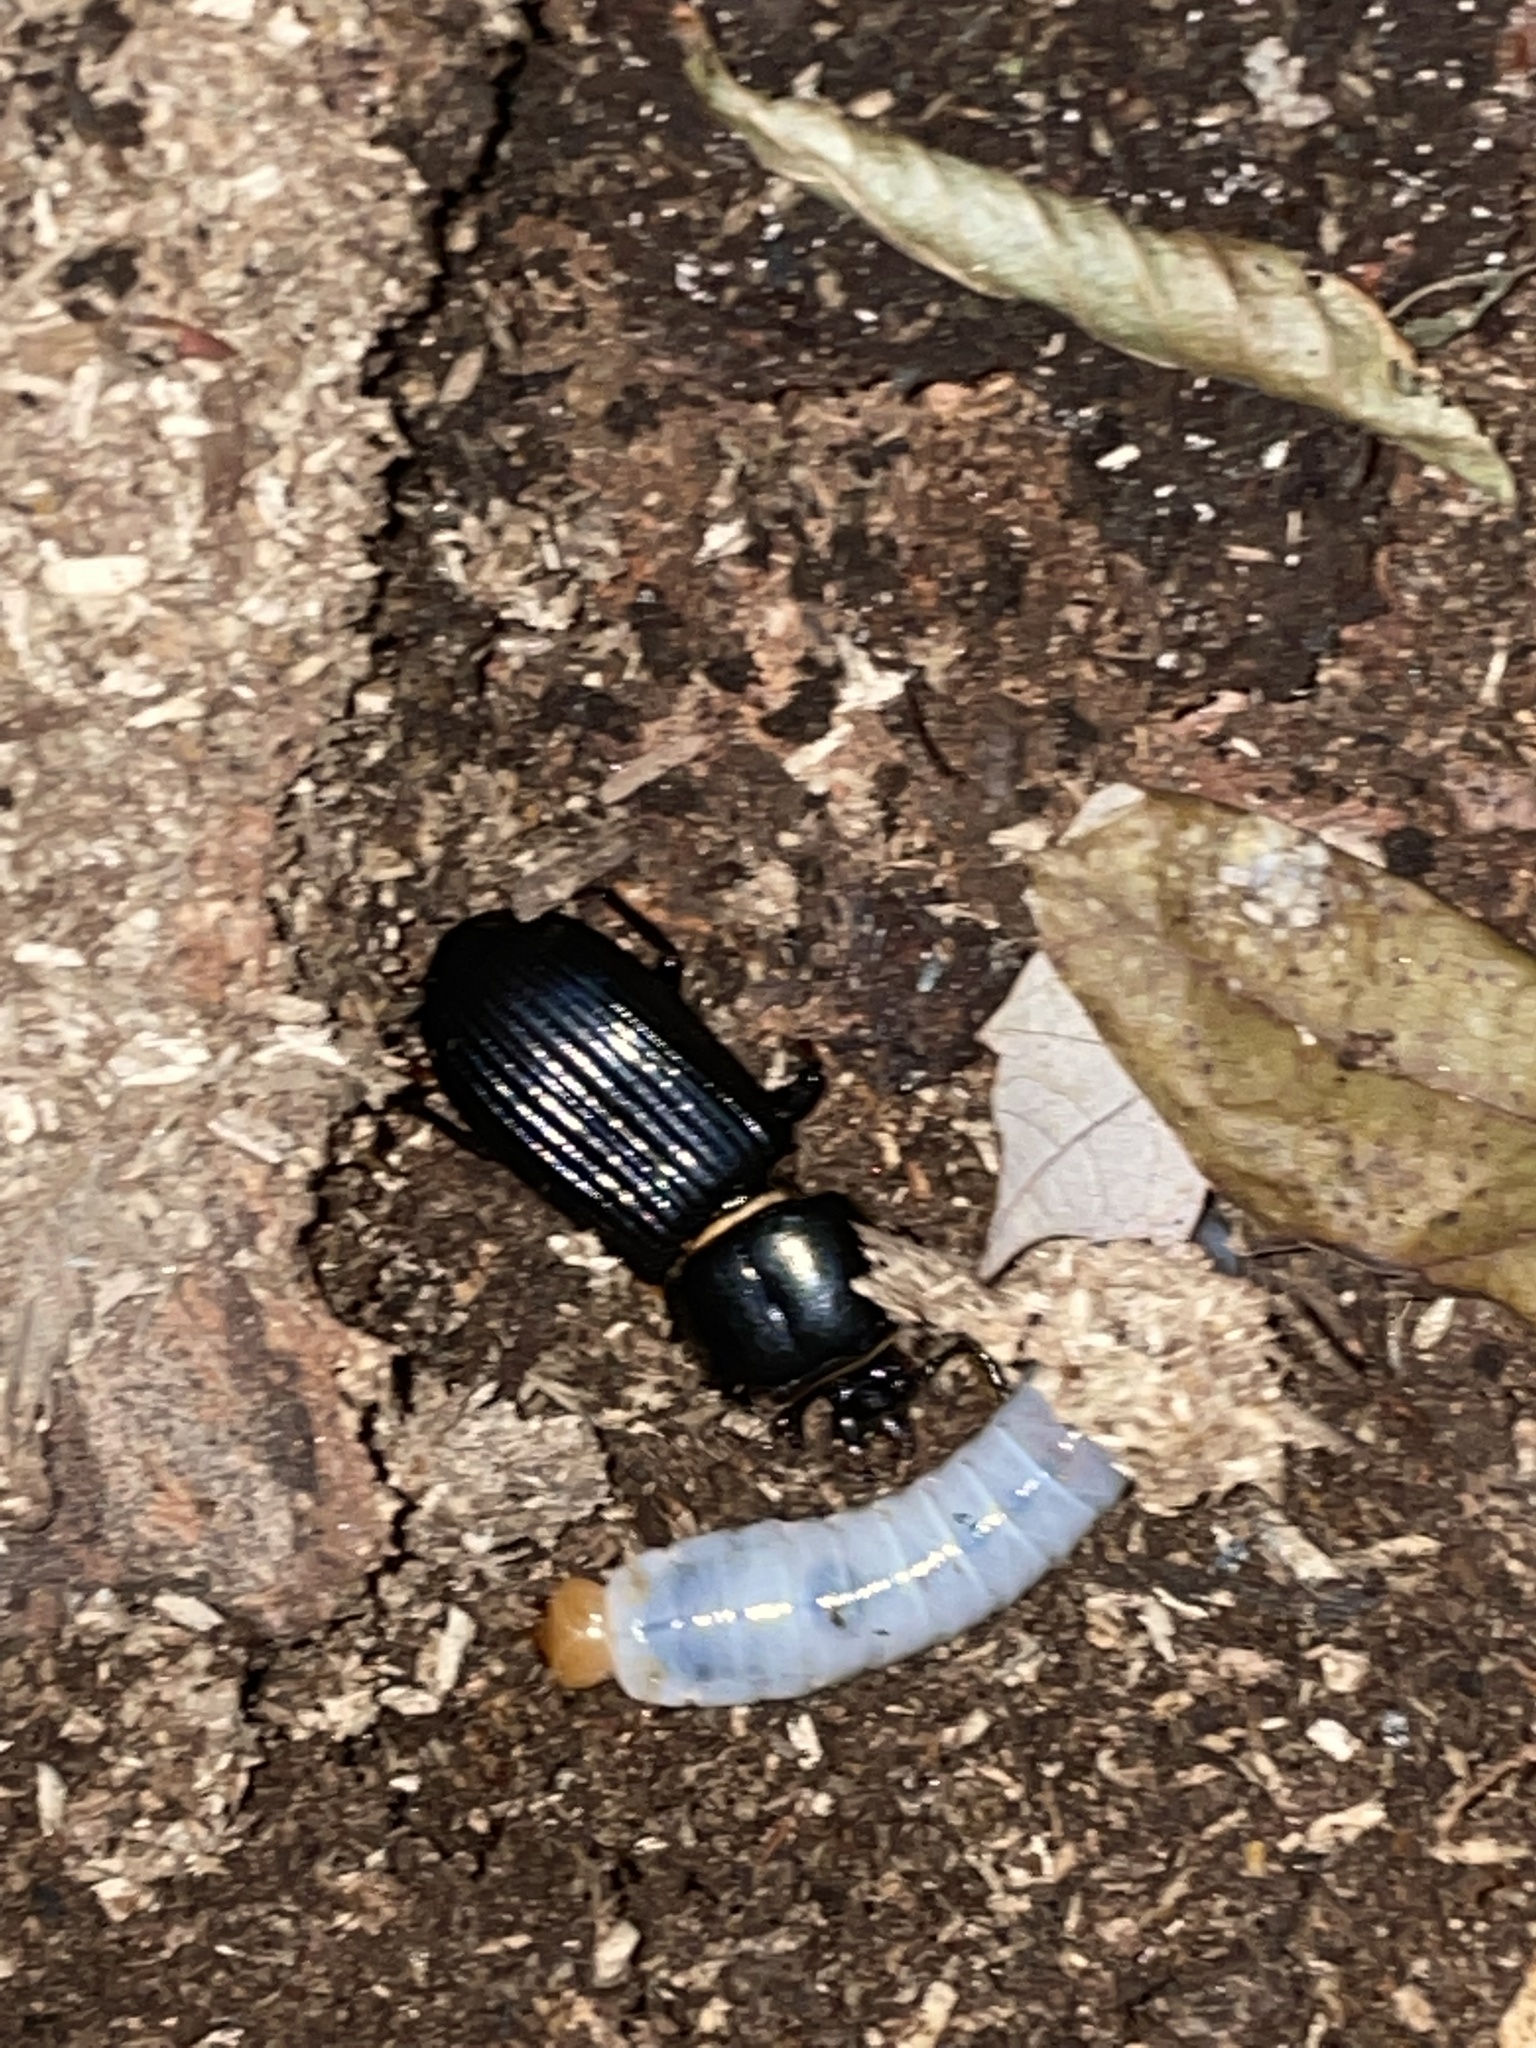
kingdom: Animalia
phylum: Arthropoda
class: Insecta
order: Coleoptera
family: Passalidae
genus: Odontotaenius
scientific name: Odontotaenius disjunctus
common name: Patent leather beetle
